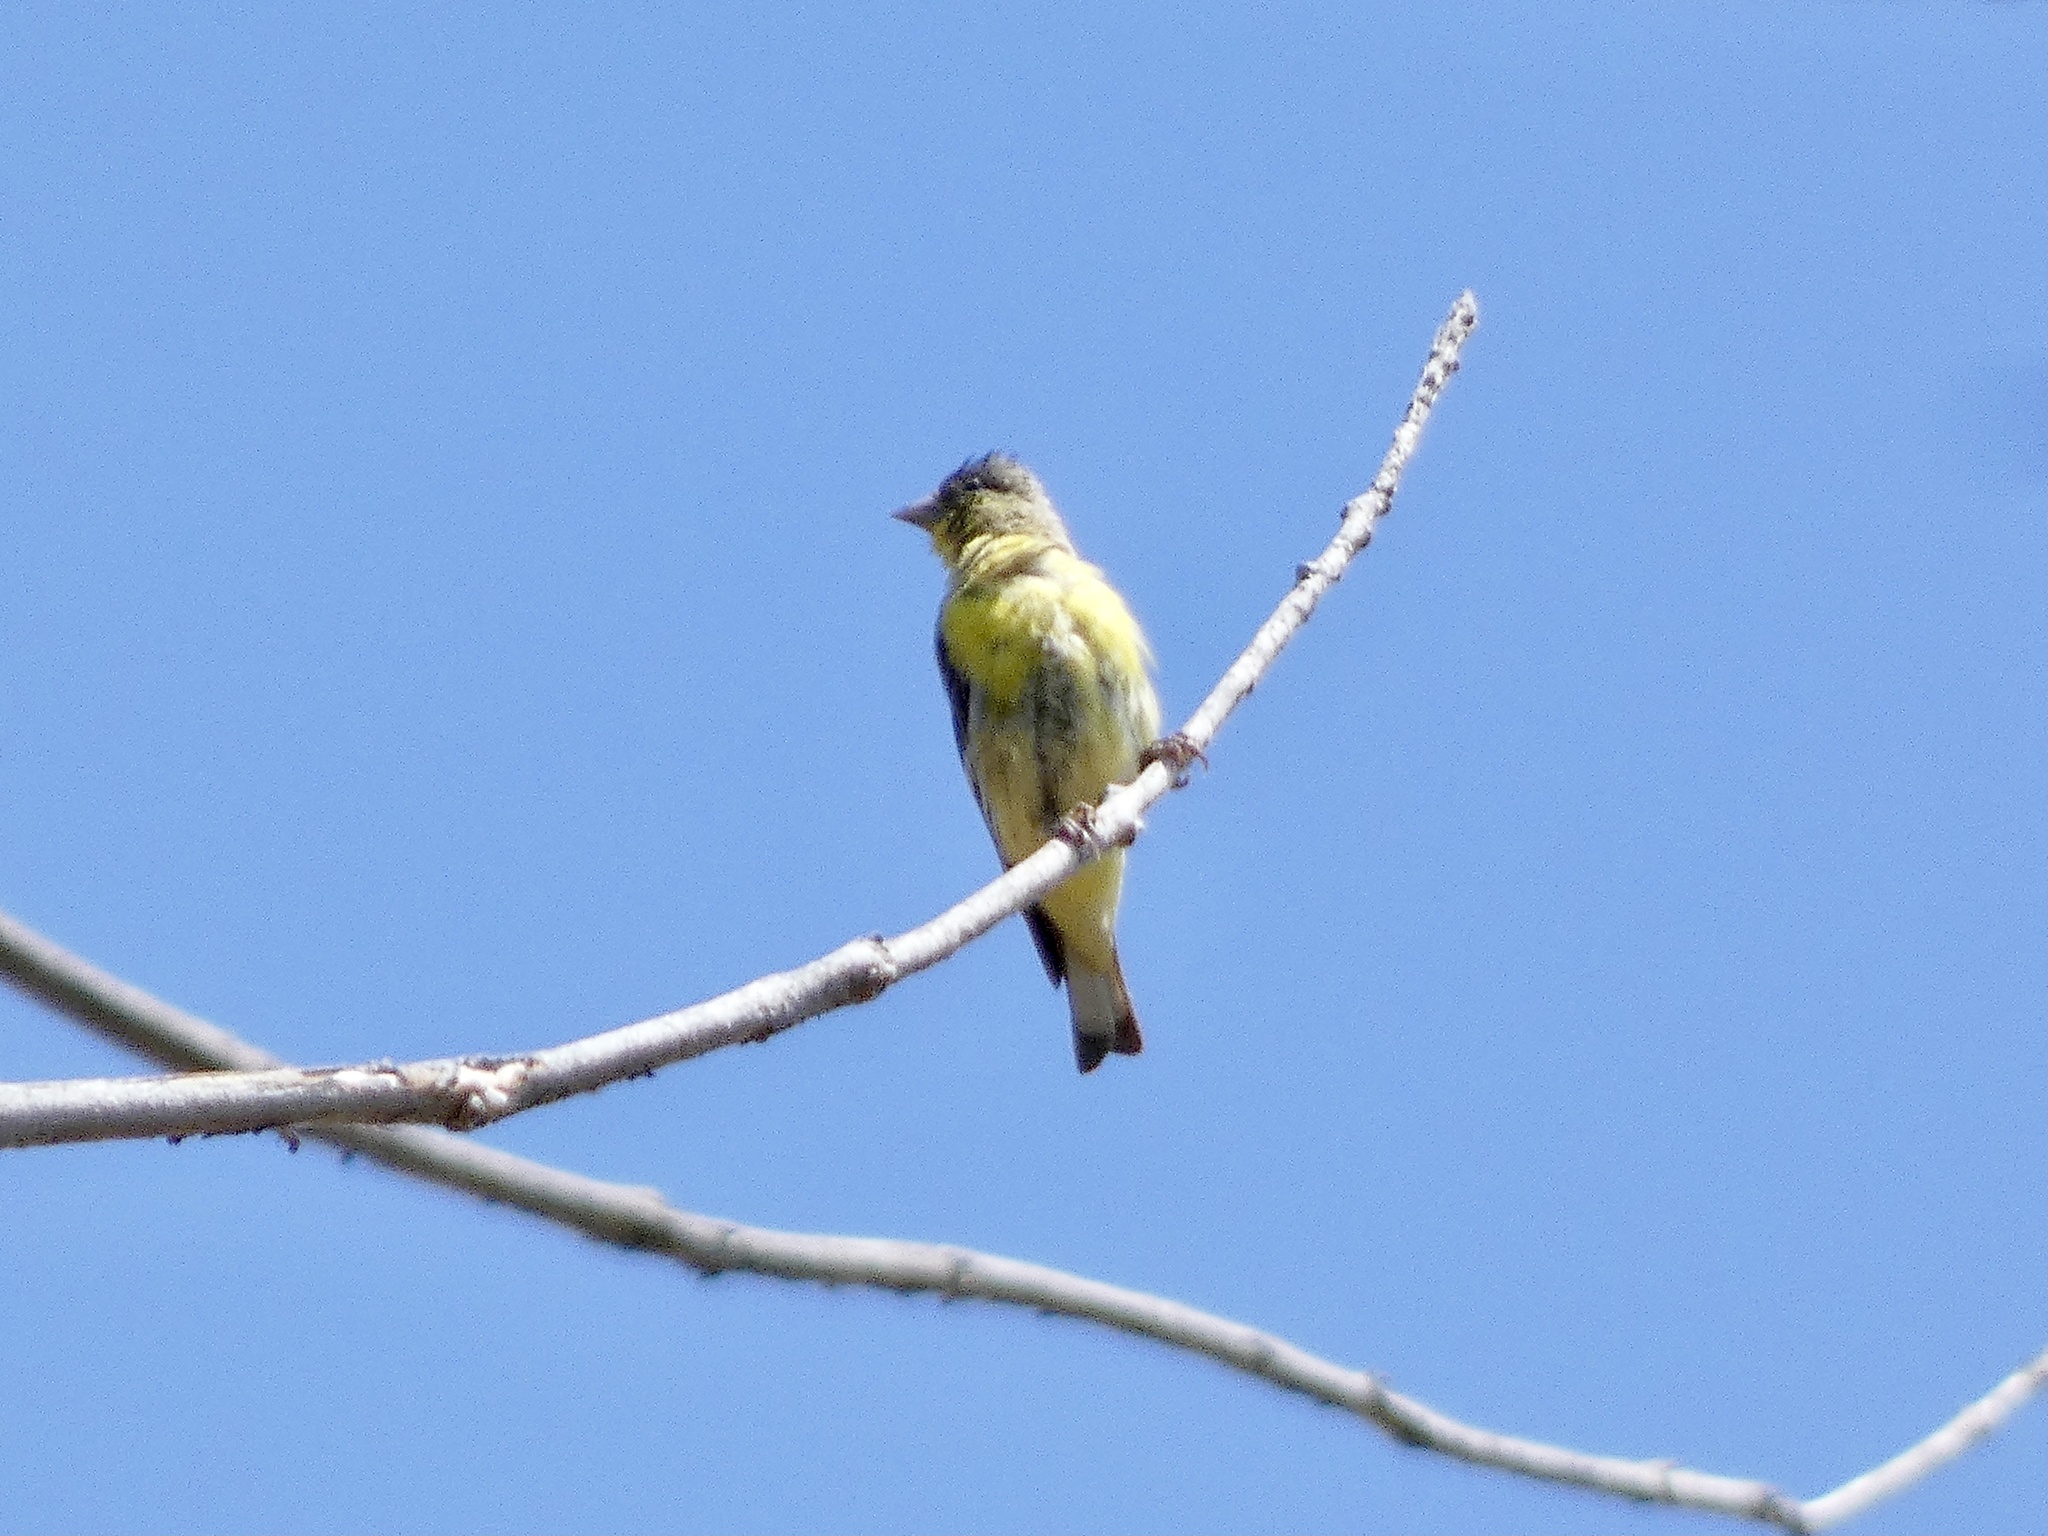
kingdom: Animalia
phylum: Chordata
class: Aves
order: Passeriformes
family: Fringillidae
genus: Spinus
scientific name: Spinus psaltria
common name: Lesser goldfinch
